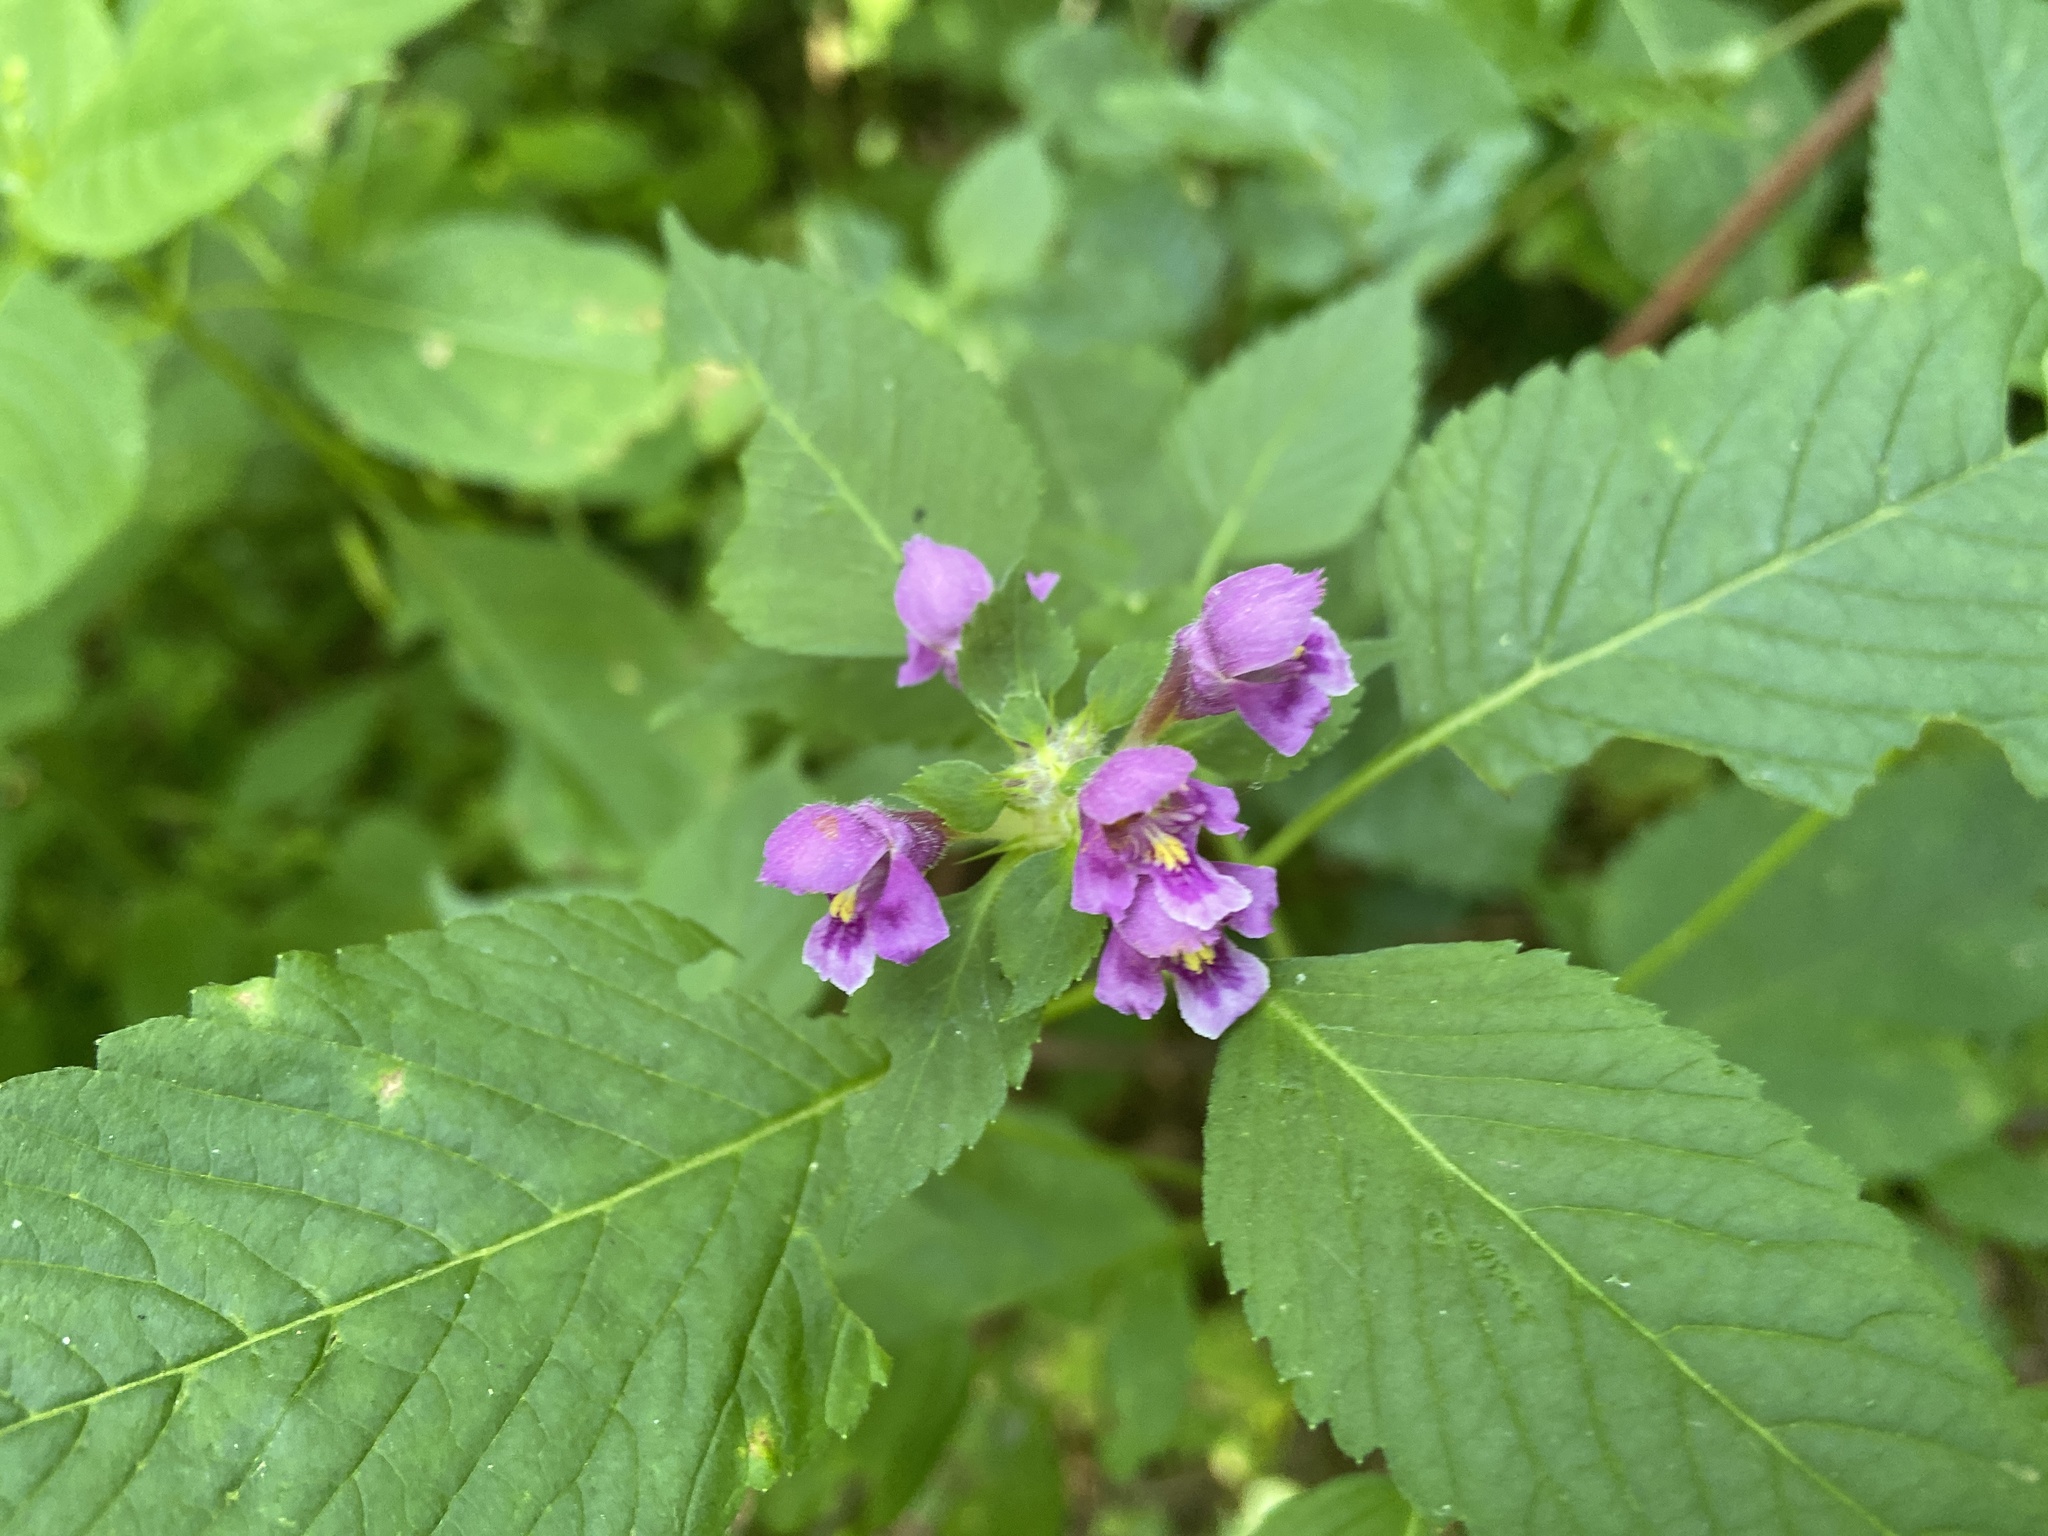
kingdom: Plantae
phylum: Tracheophyta
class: Magnoliopsida
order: Lamiales
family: Lamiaceae
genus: Galeopsis
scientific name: Galeopsis pubescens
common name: Downy hemp-nettle
